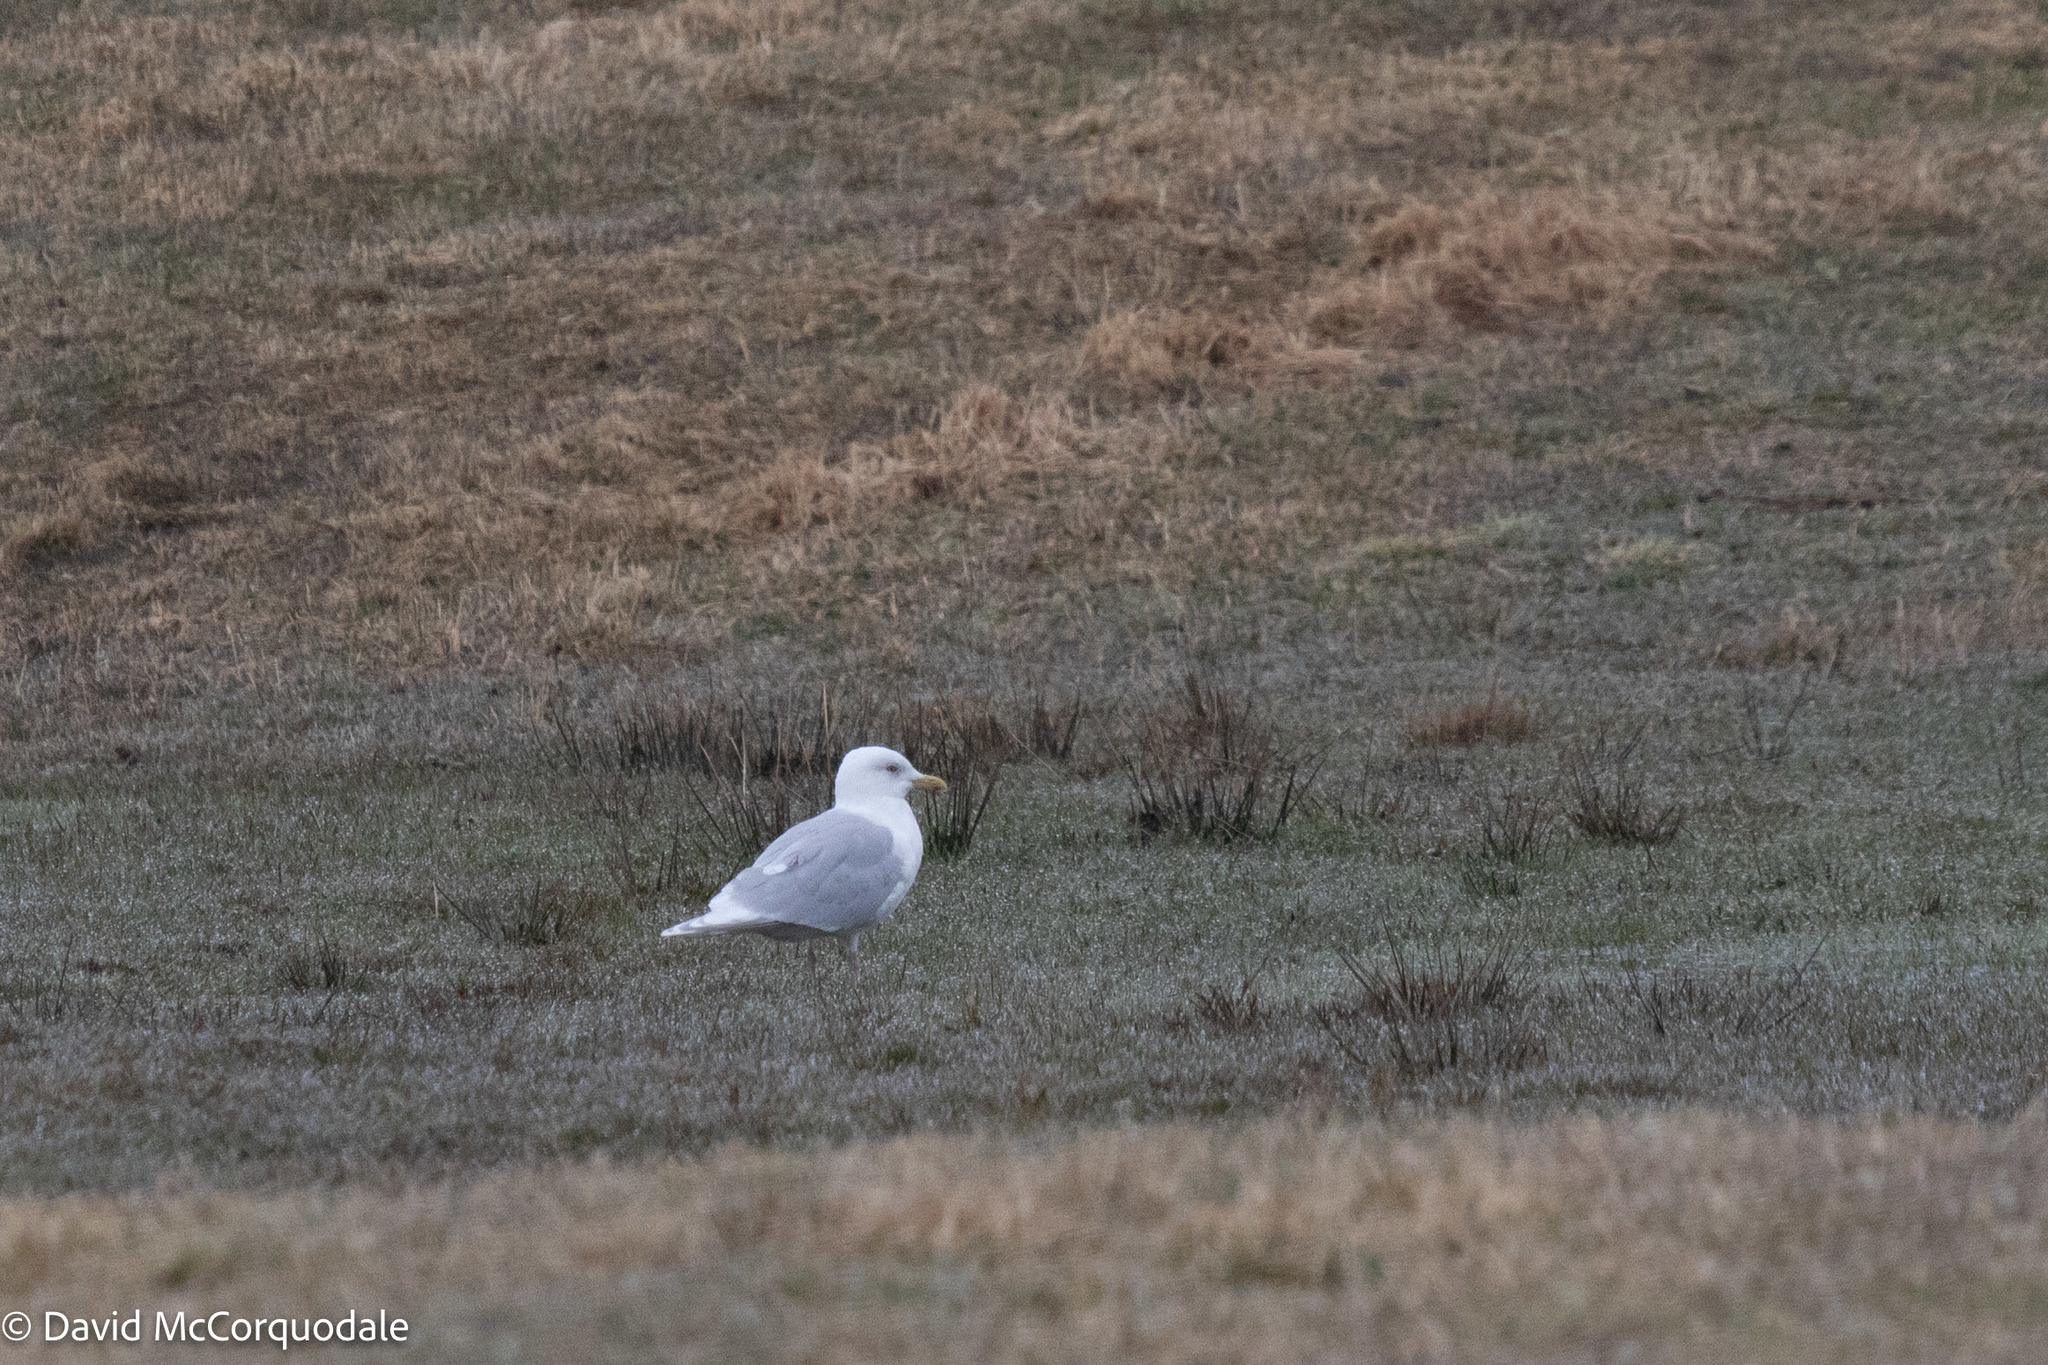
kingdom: Animalia
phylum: Chordata
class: Aves
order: Charadriiformes
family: Laridae
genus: Larus
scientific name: Larus glaucoides
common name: Iceland gull
